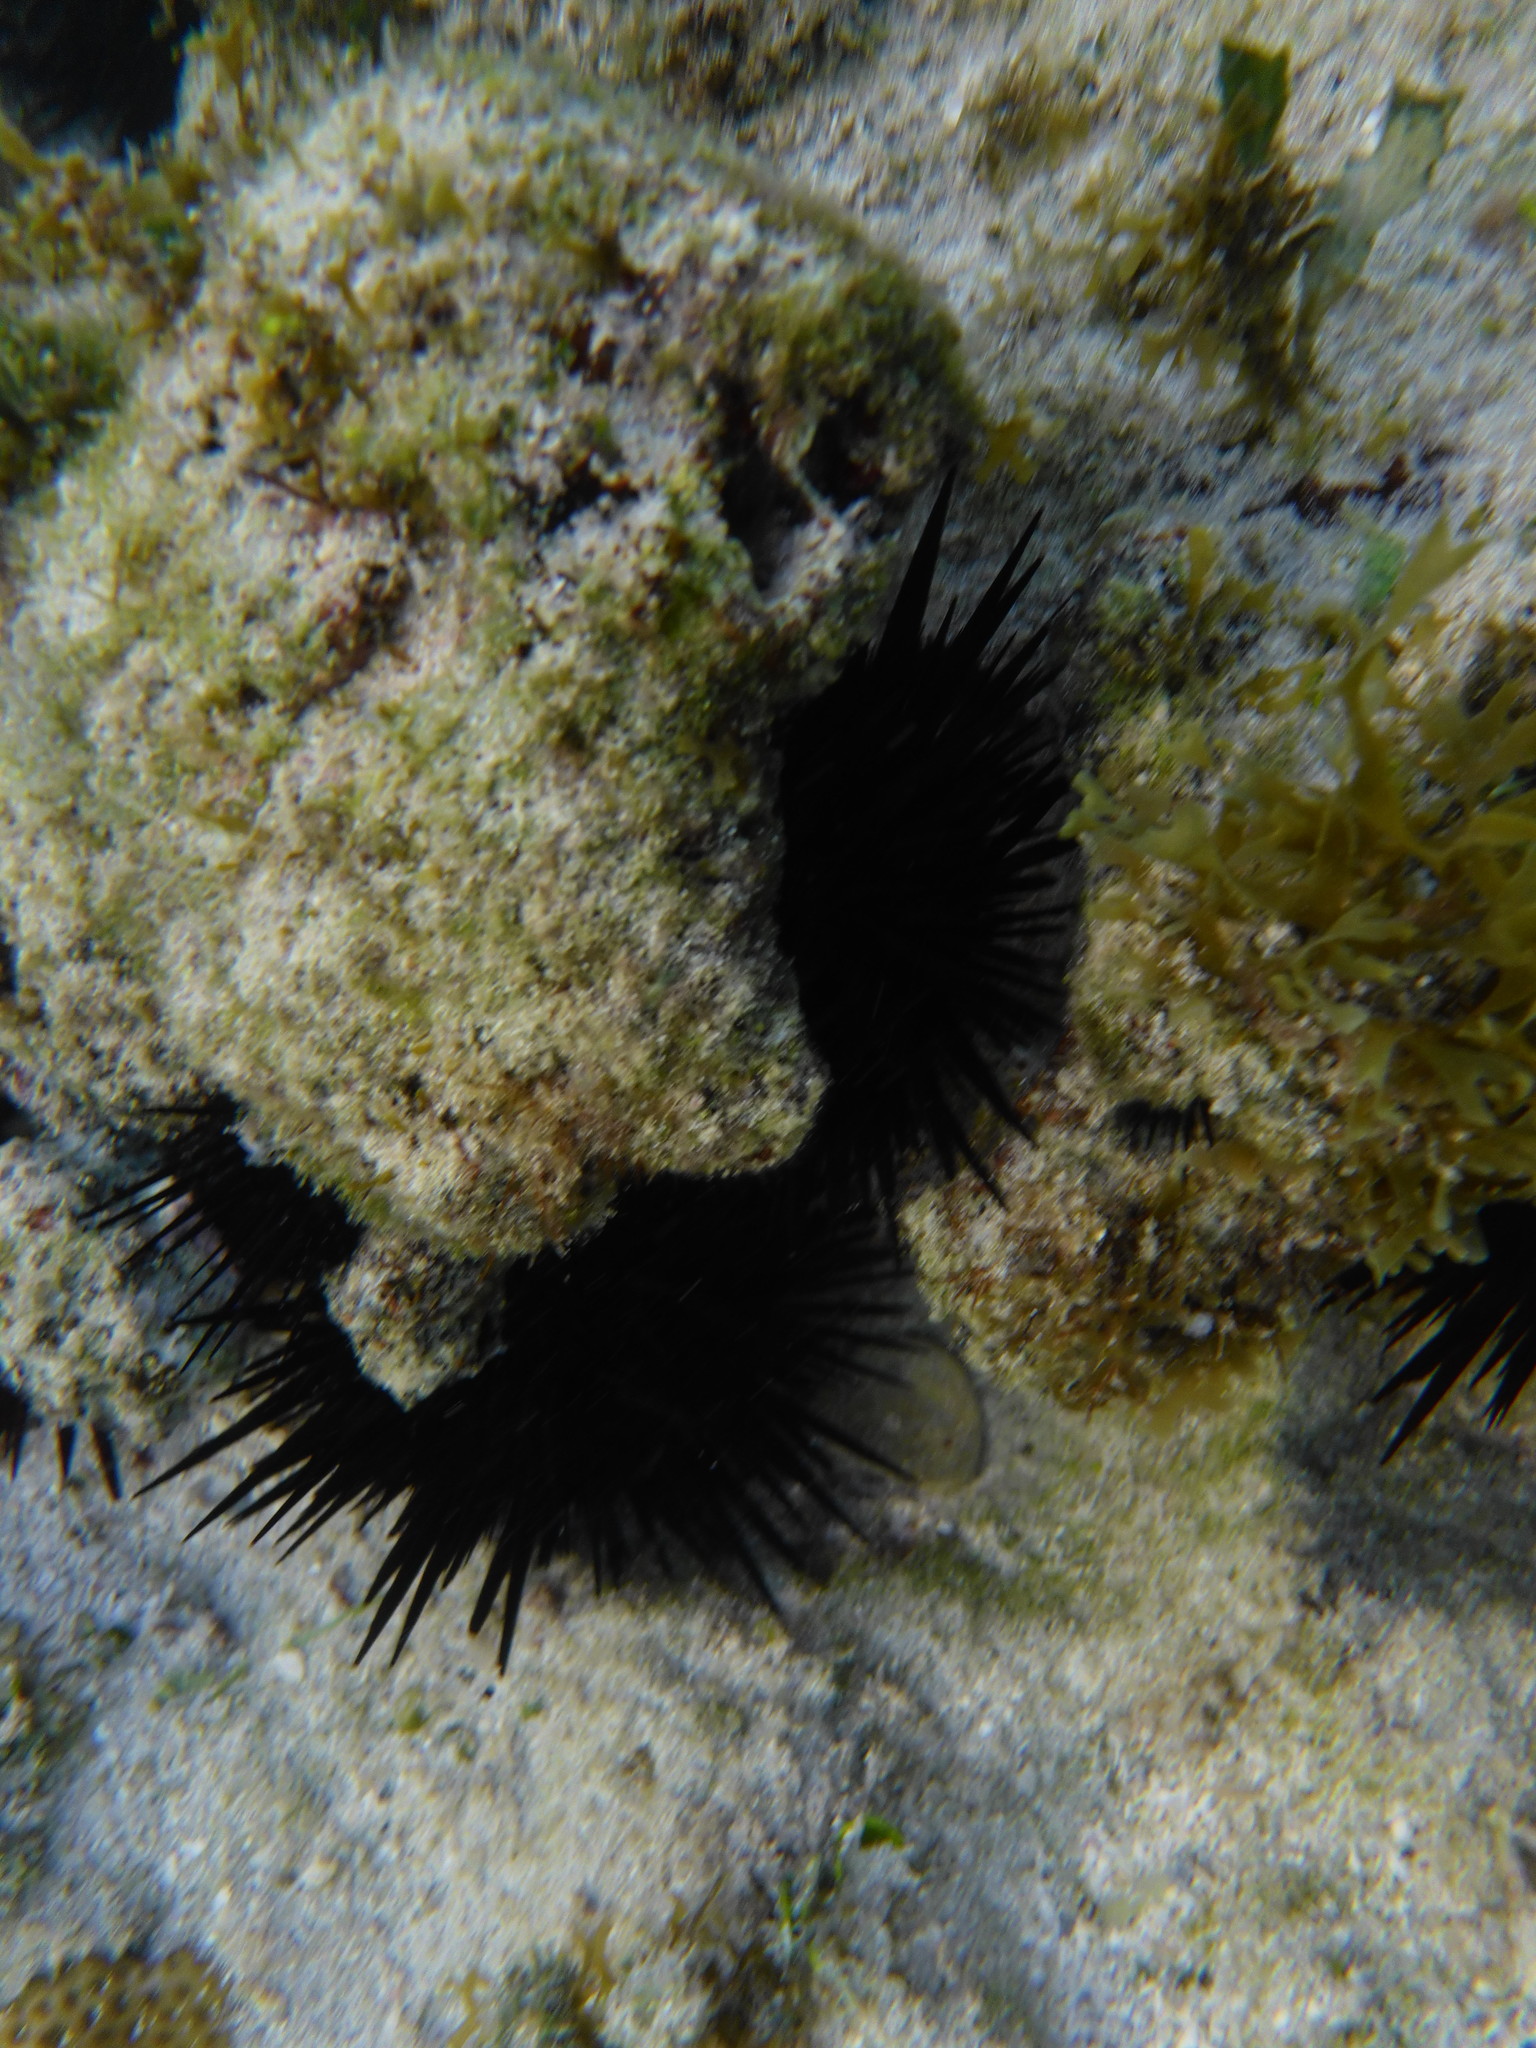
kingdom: Animalia
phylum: Echinodermata
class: Echinoidea
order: Camarodonta
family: Echinometridae
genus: Echinometra
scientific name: Echinometra lucunter
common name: Rock urchin
